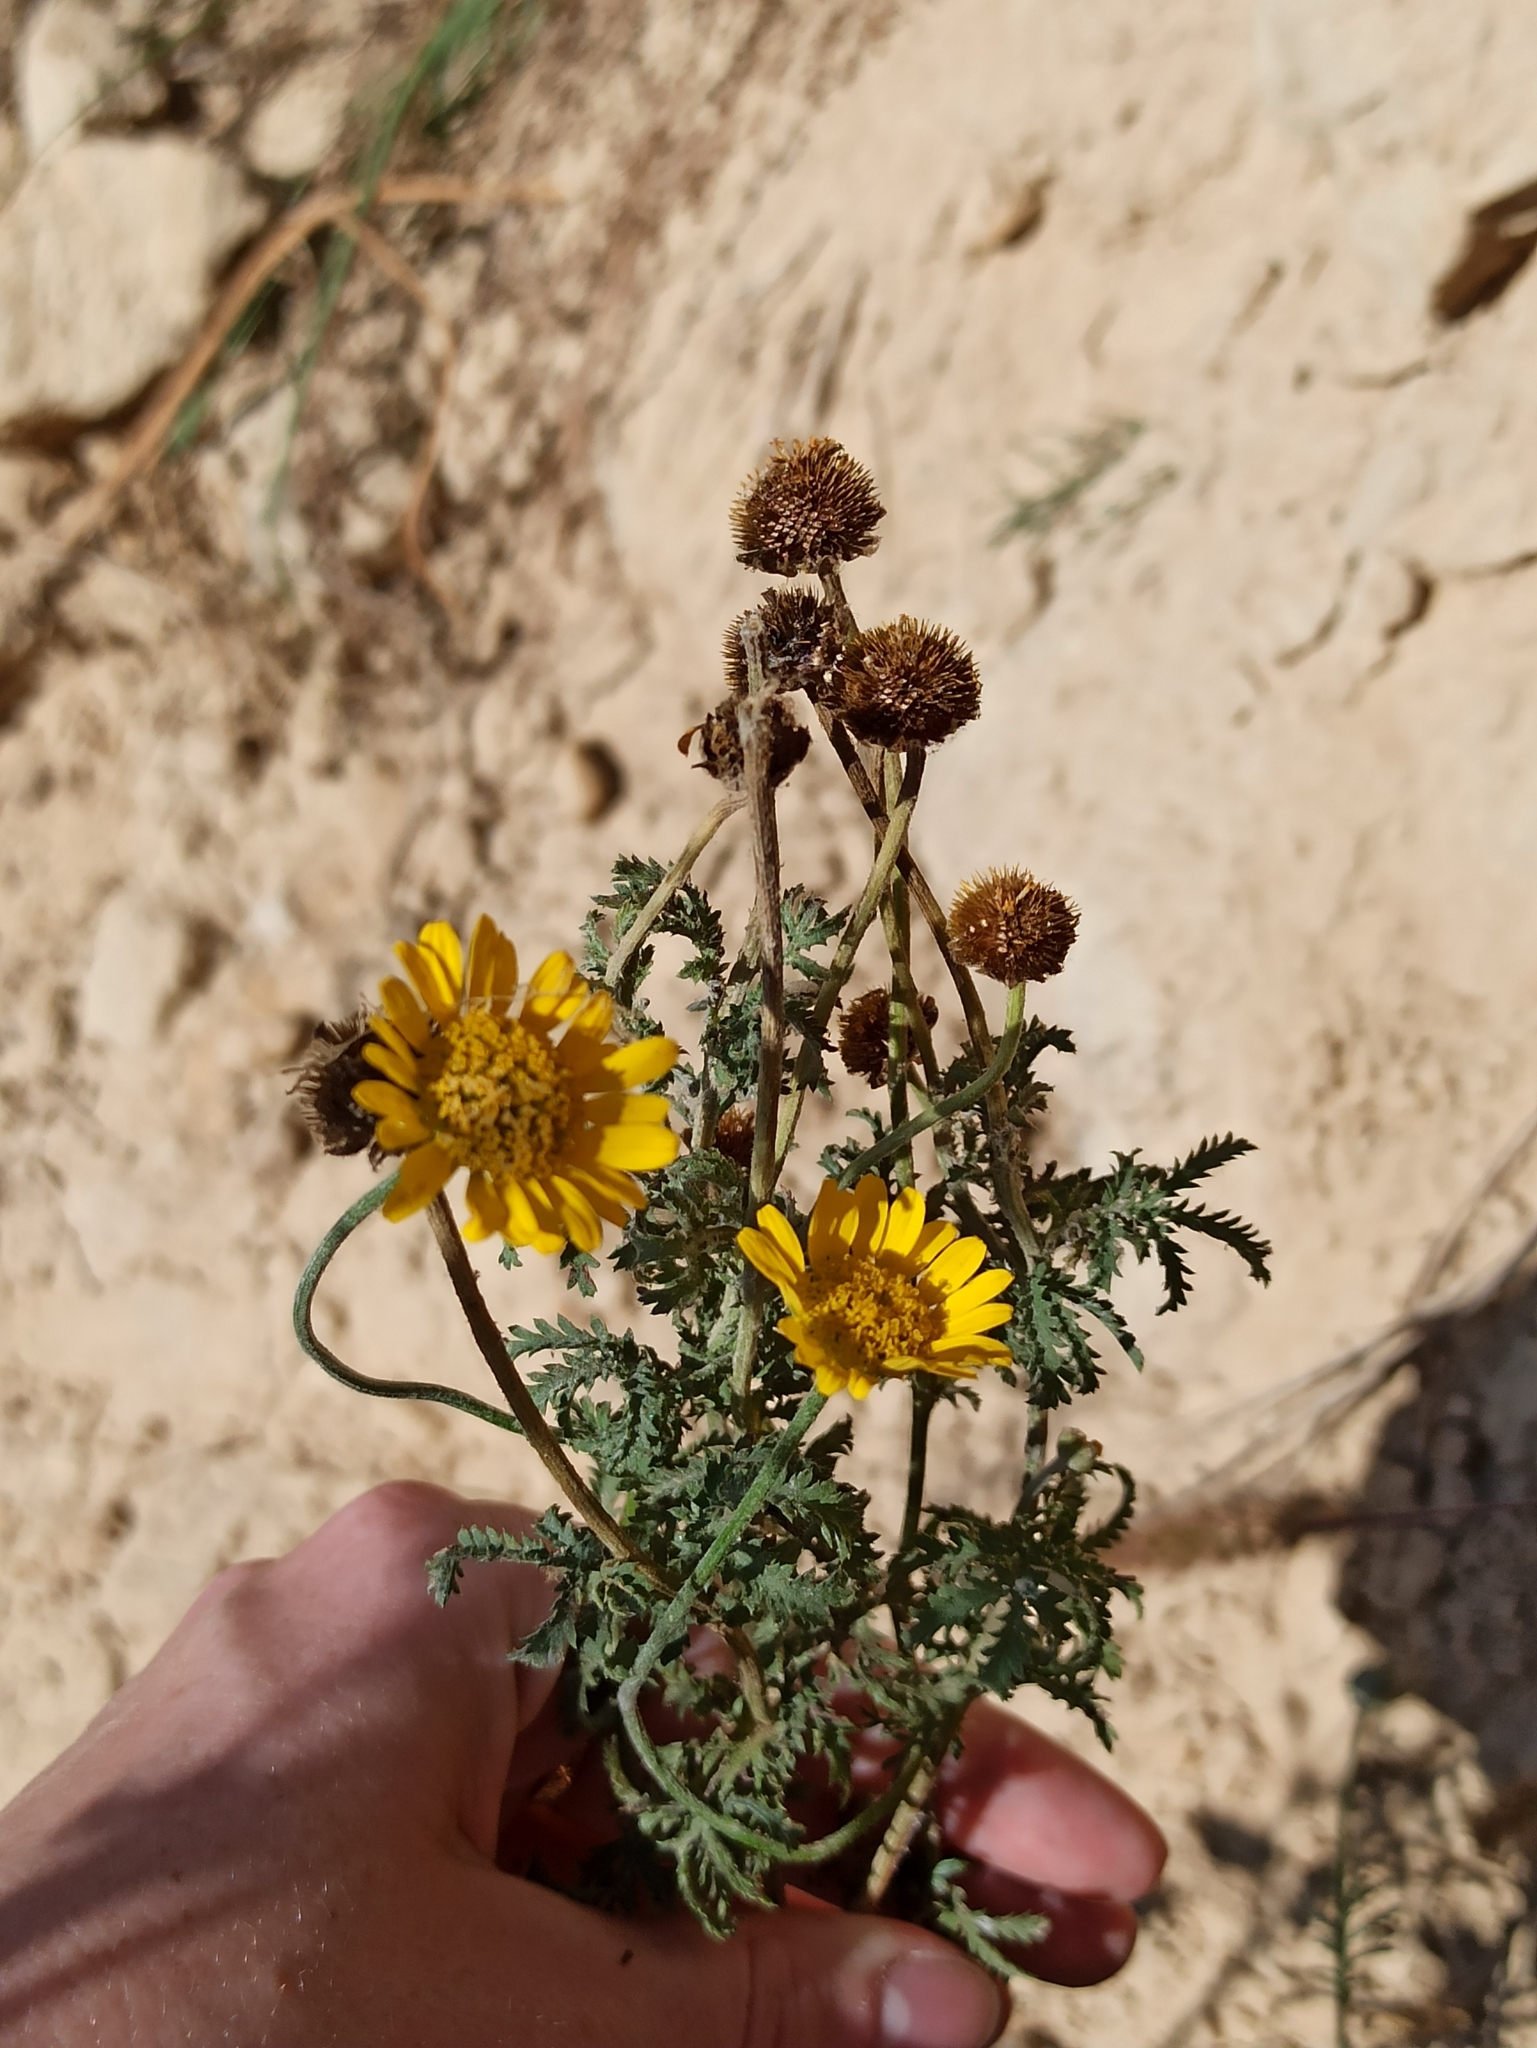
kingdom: Plantae
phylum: Tracheophyta
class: Magnoliopsida
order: Asterales
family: Asteraceae
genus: Cota
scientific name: Cota tinctoria
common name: Golden chamomile
